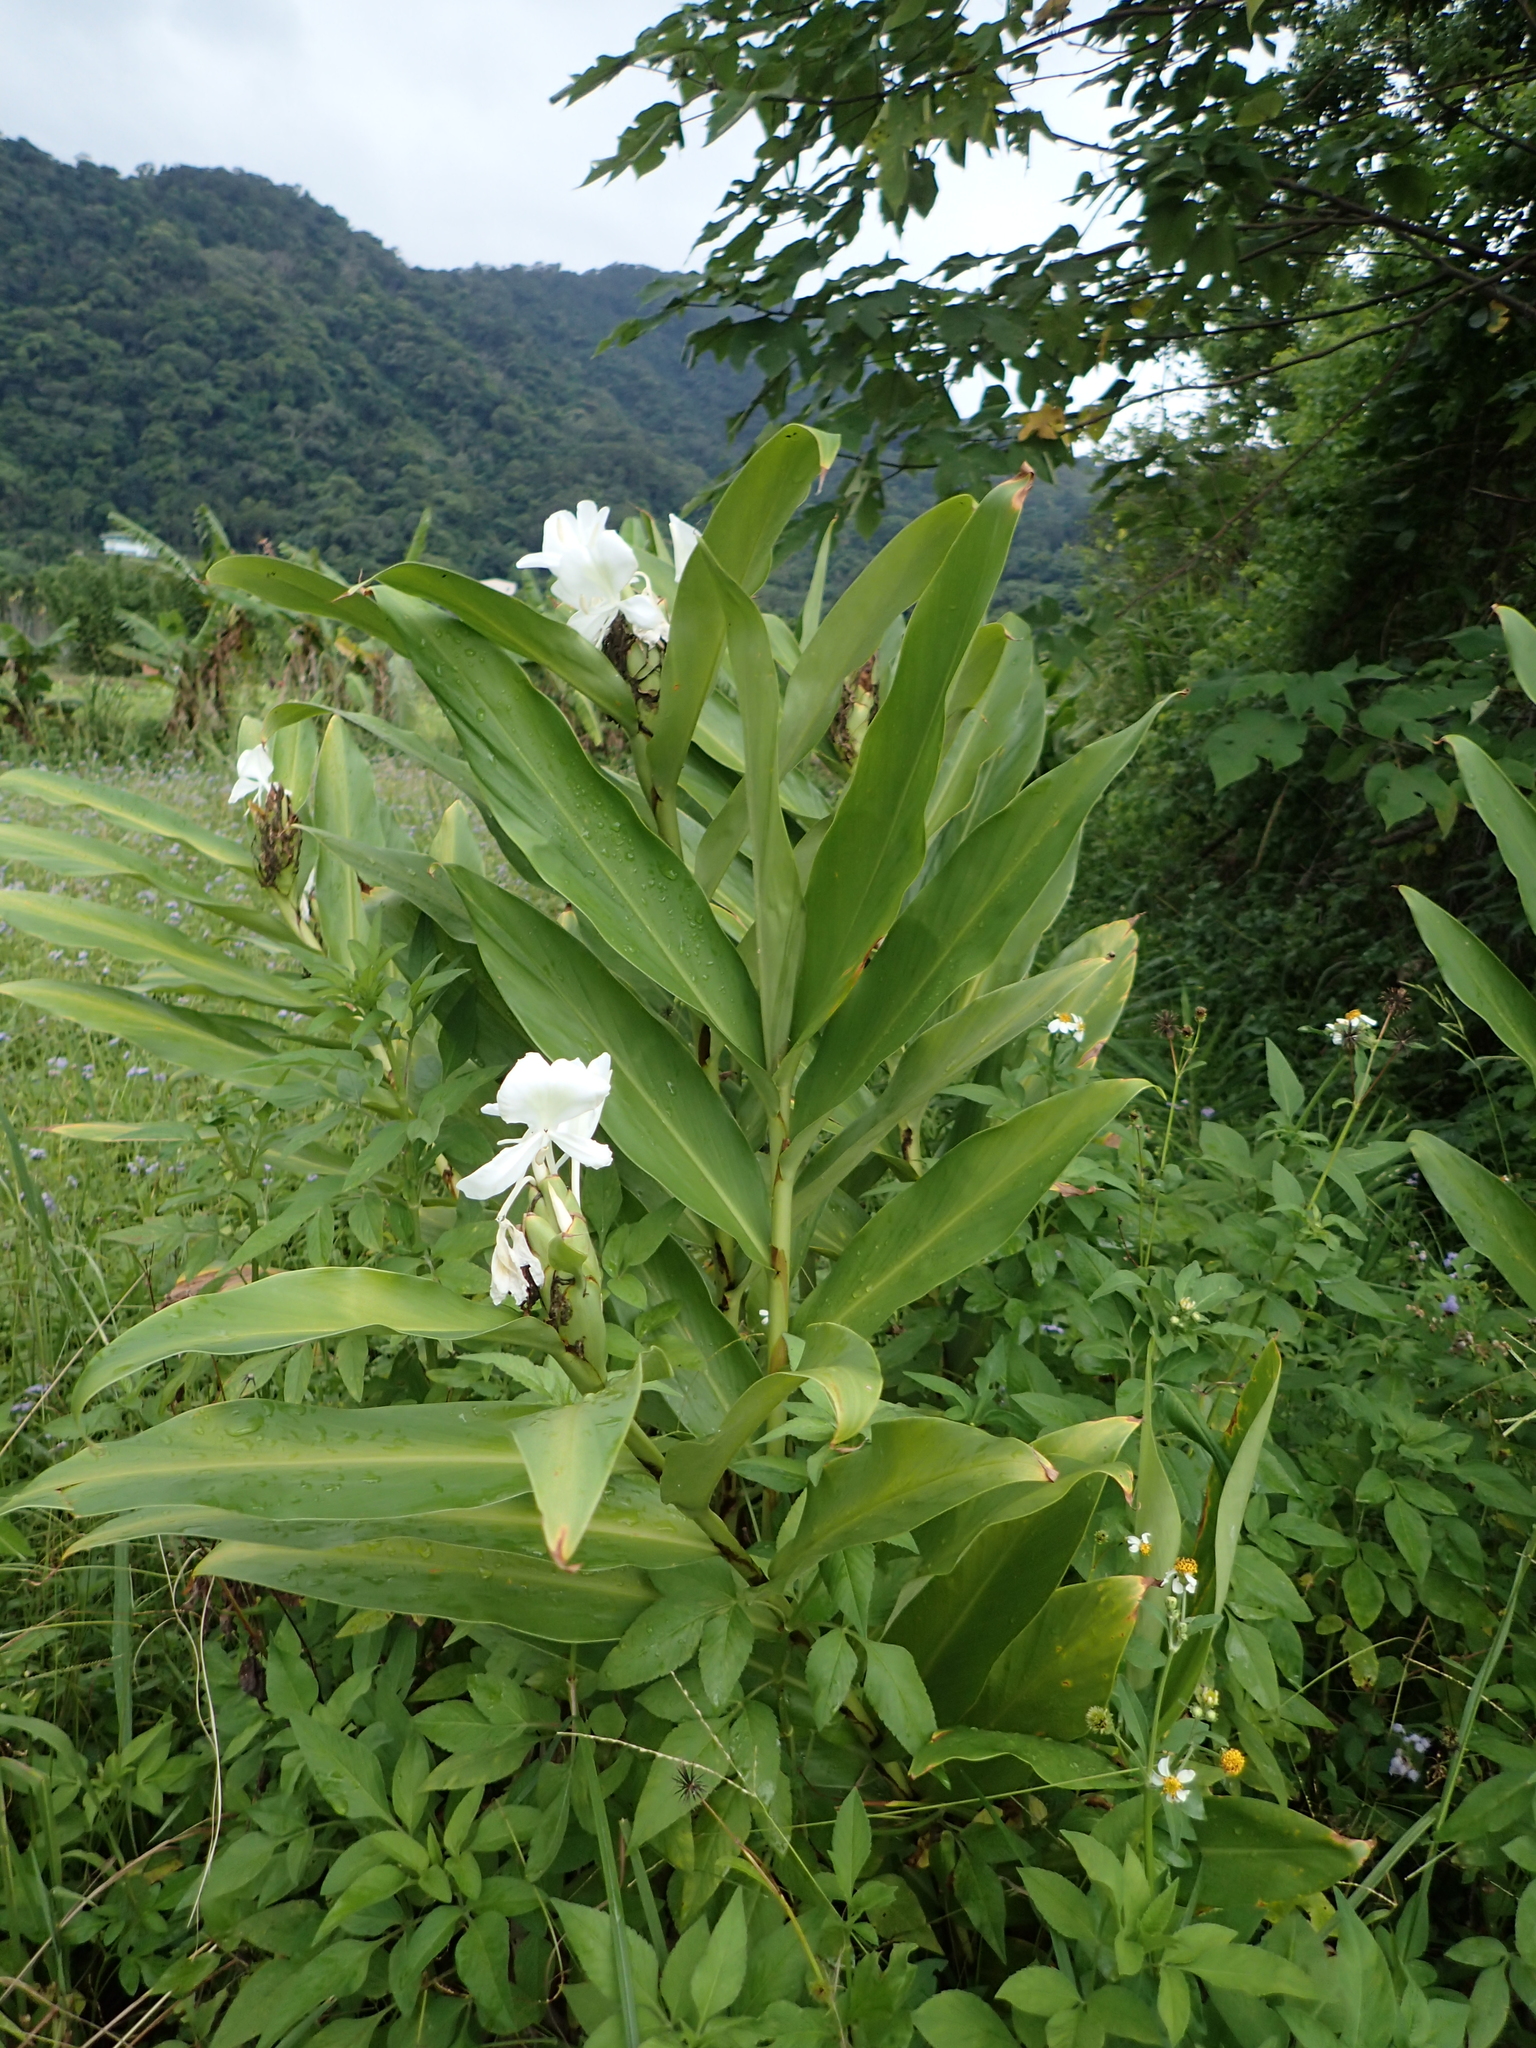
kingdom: Plantae
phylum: Tracheophyta
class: Liliopsida
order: Zingiberales
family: Zingiberaceae
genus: Hedychium
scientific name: Hedychium coronarium
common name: White garland-lily
